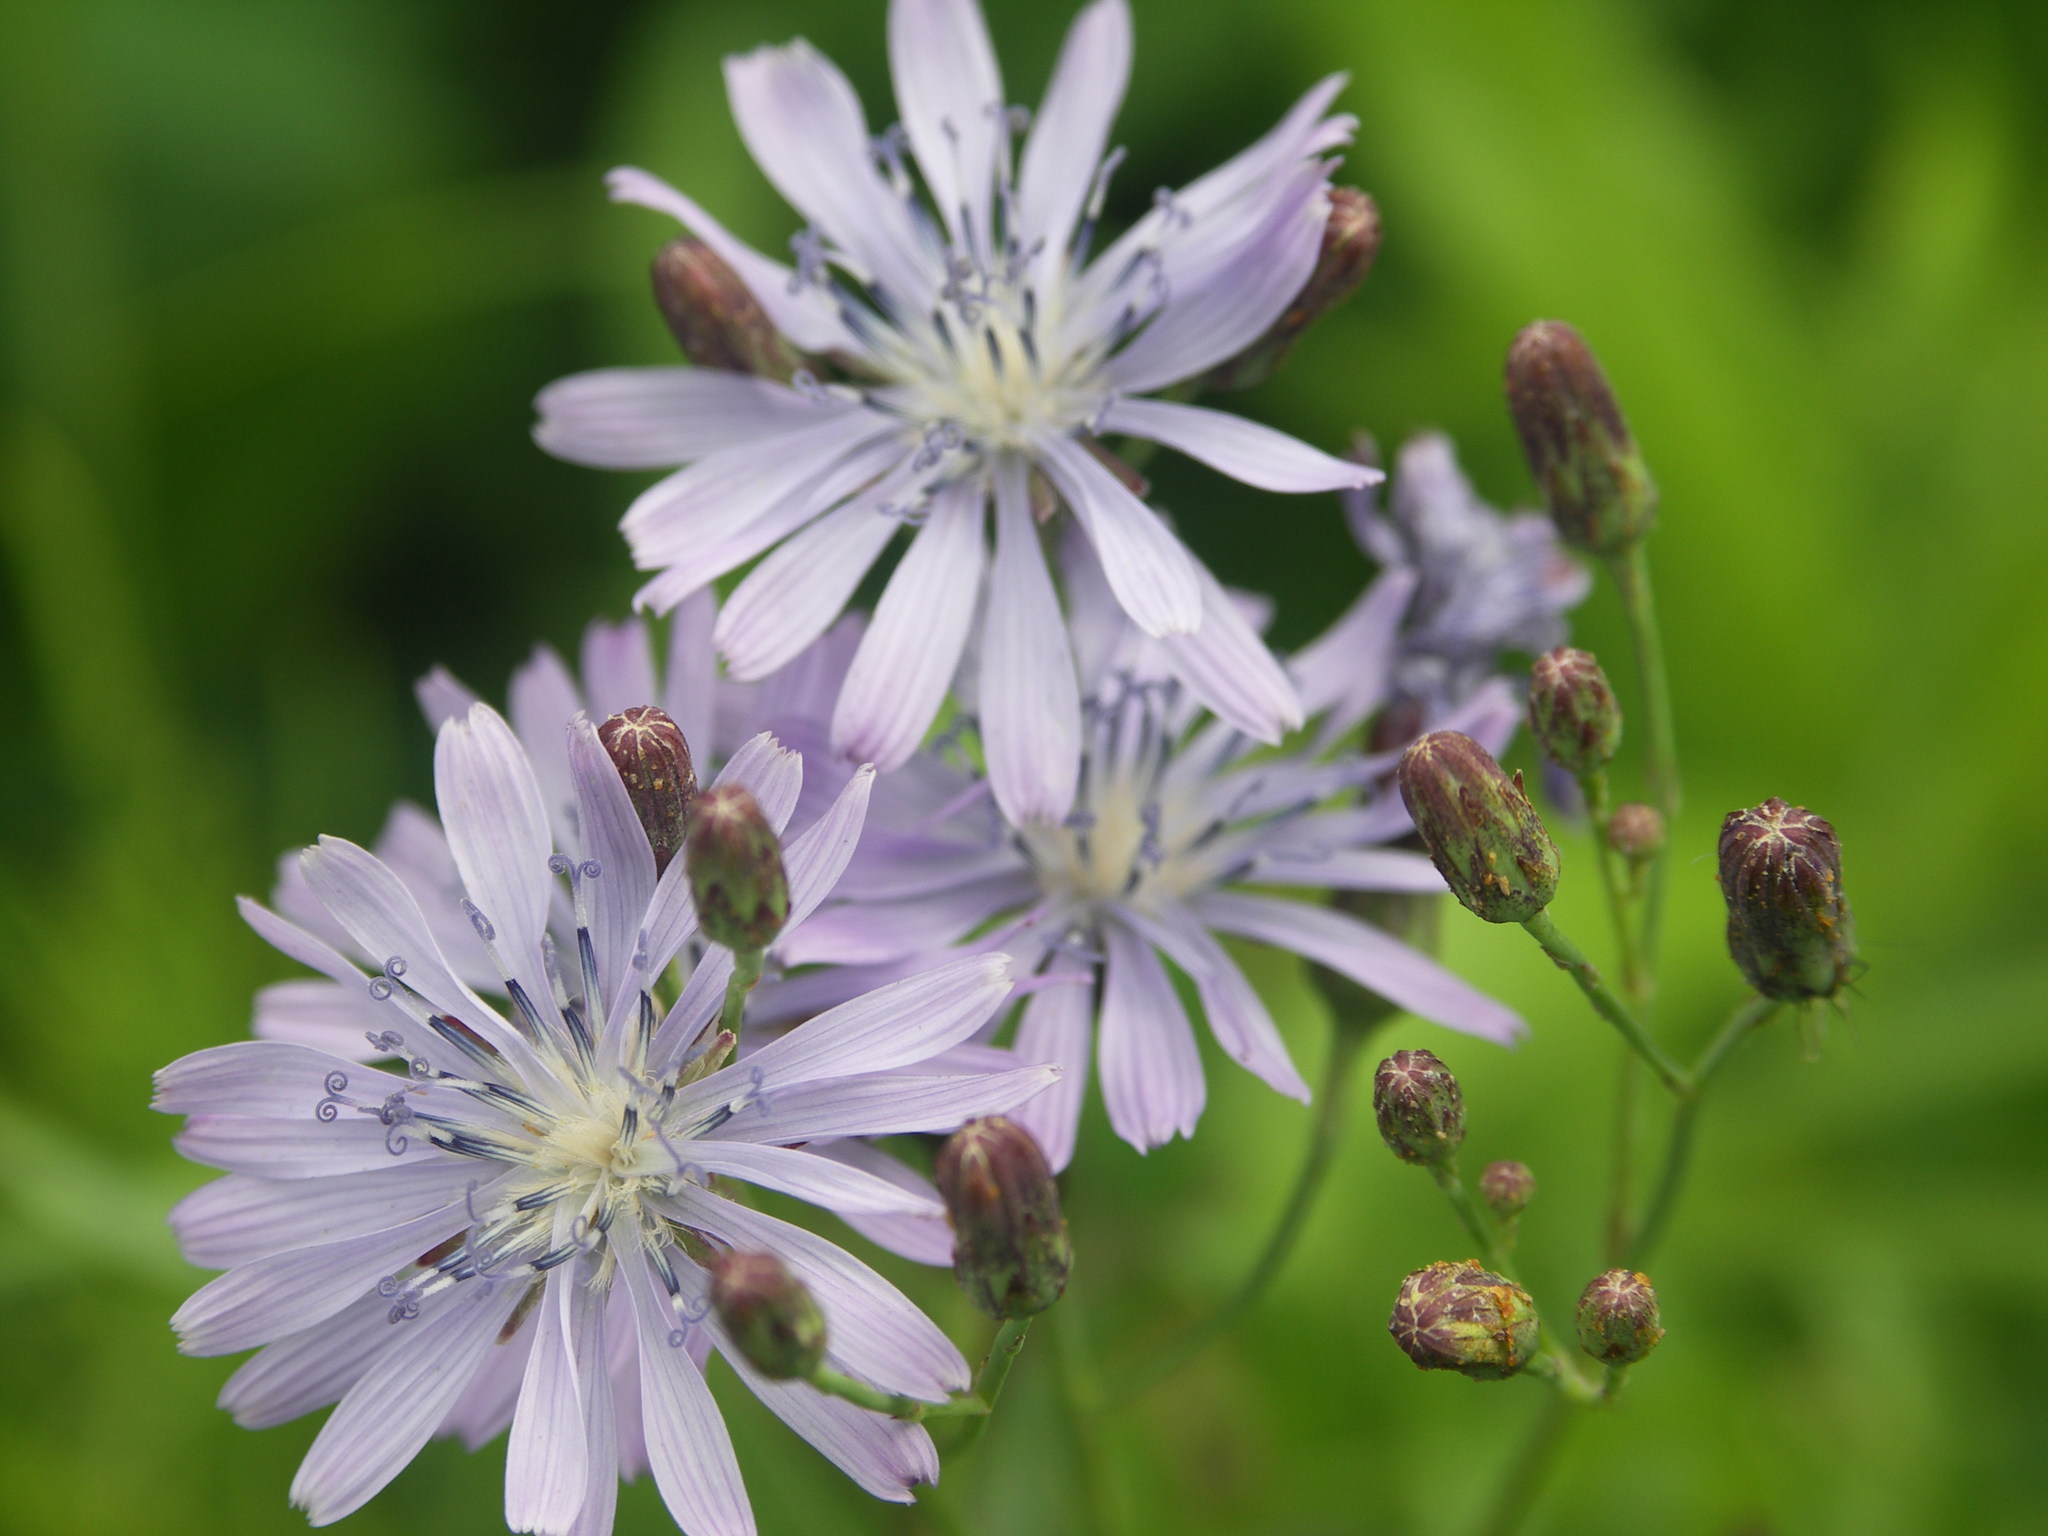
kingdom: Plantae
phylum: Tracheophyta
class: Magnoliopsida
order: Asterales
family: Asteraceae
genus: Lactuca
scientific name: Lactuca tatarica
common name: Blue lettuce
